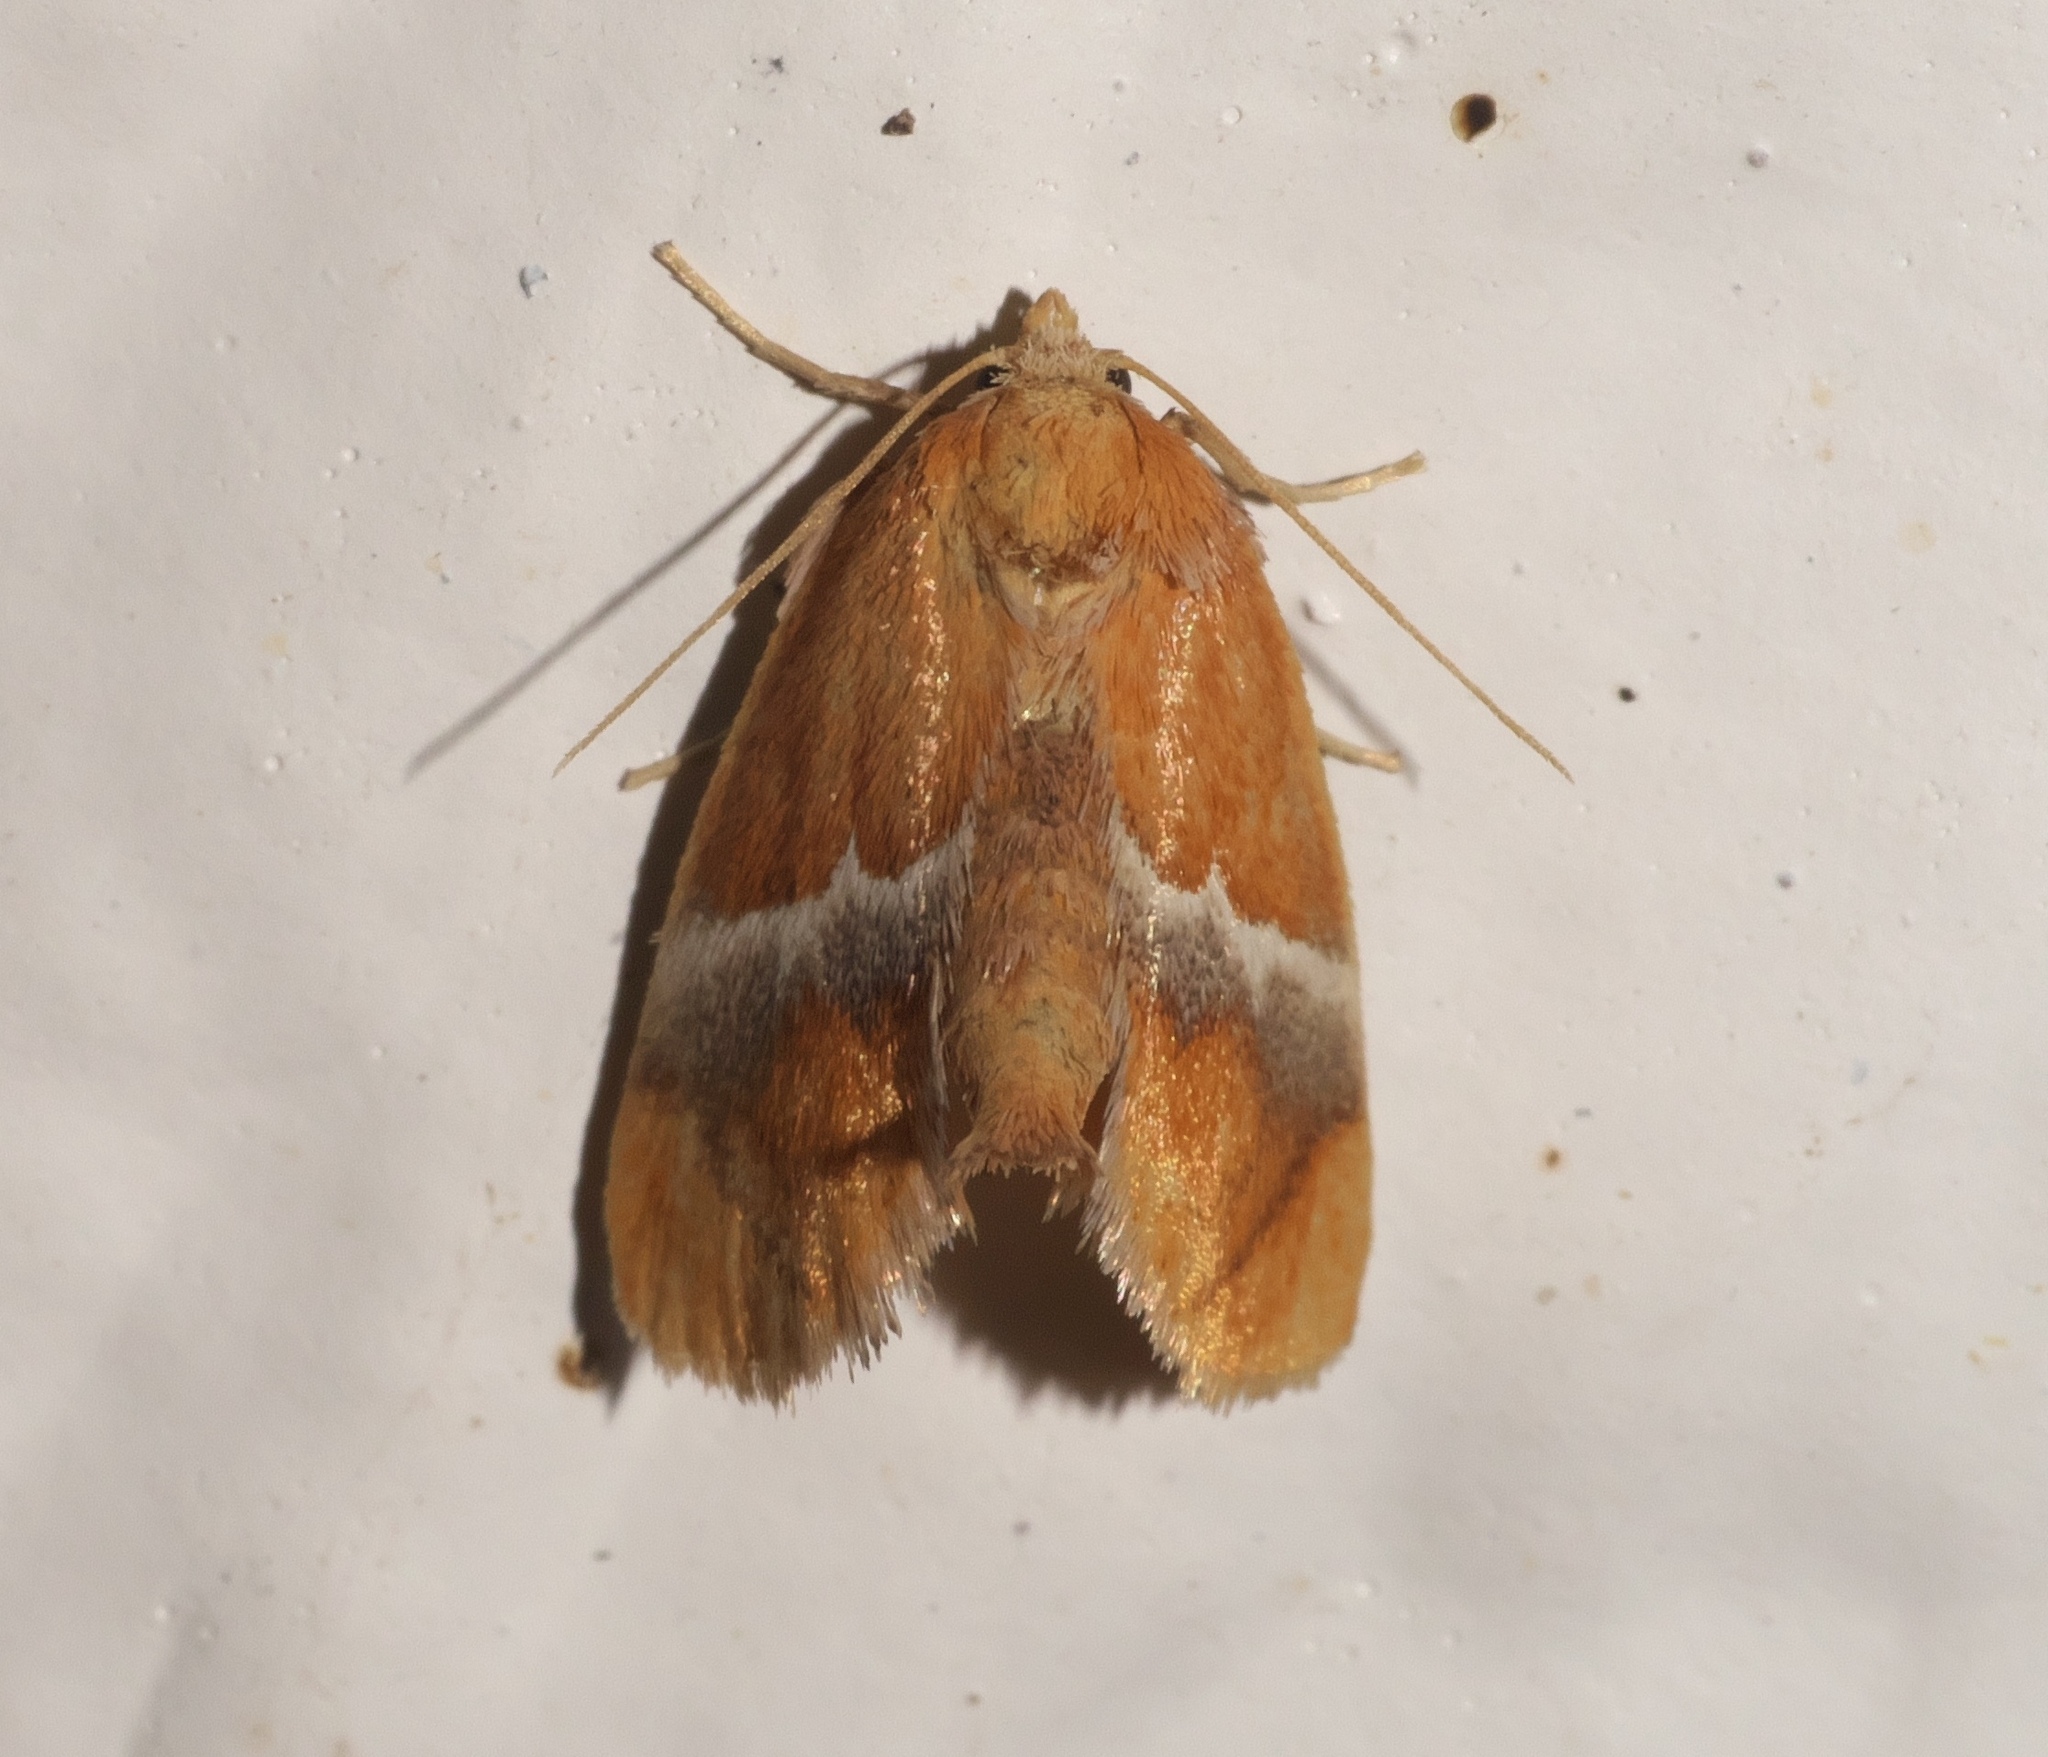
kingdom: Animalia
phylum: Arthropoda
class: Insecta
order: Lepidoptera
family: Limacodidae
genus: Lithacodes
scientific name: Lithacodes fasciola
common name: Yellow-shouldered slug moth
